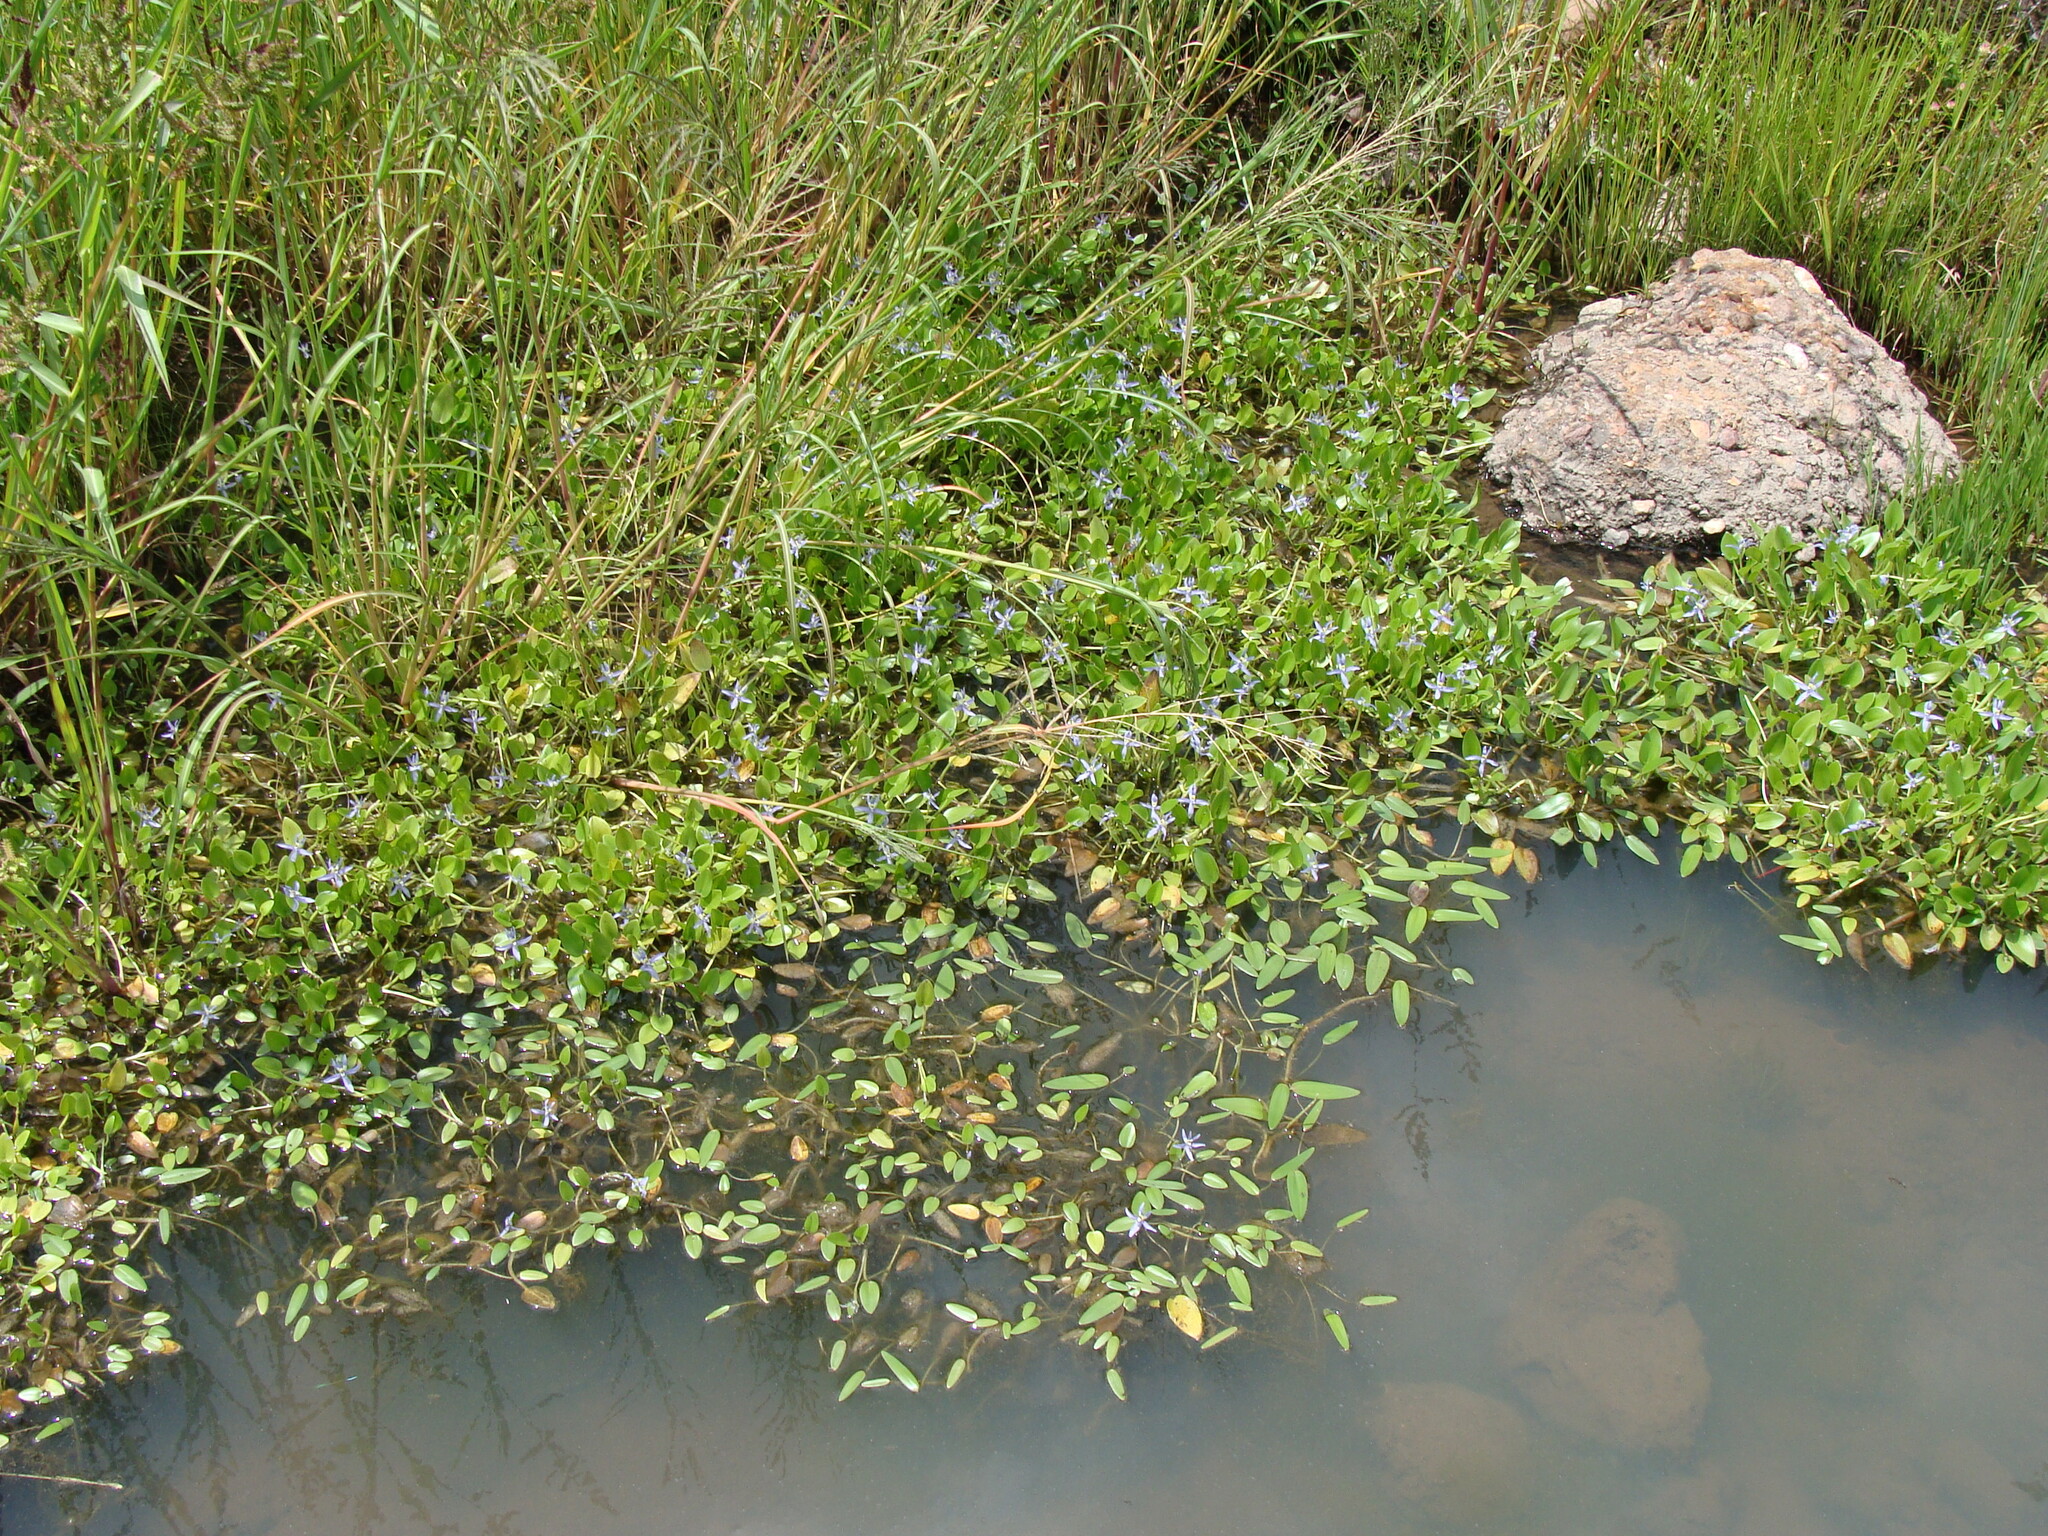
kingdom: Plantae
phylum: Tracheophyta
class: Liliopsida
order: Commelinales
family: Pontederiaceae
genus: Heteranthera
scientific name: Heteranthera rotundifolia
